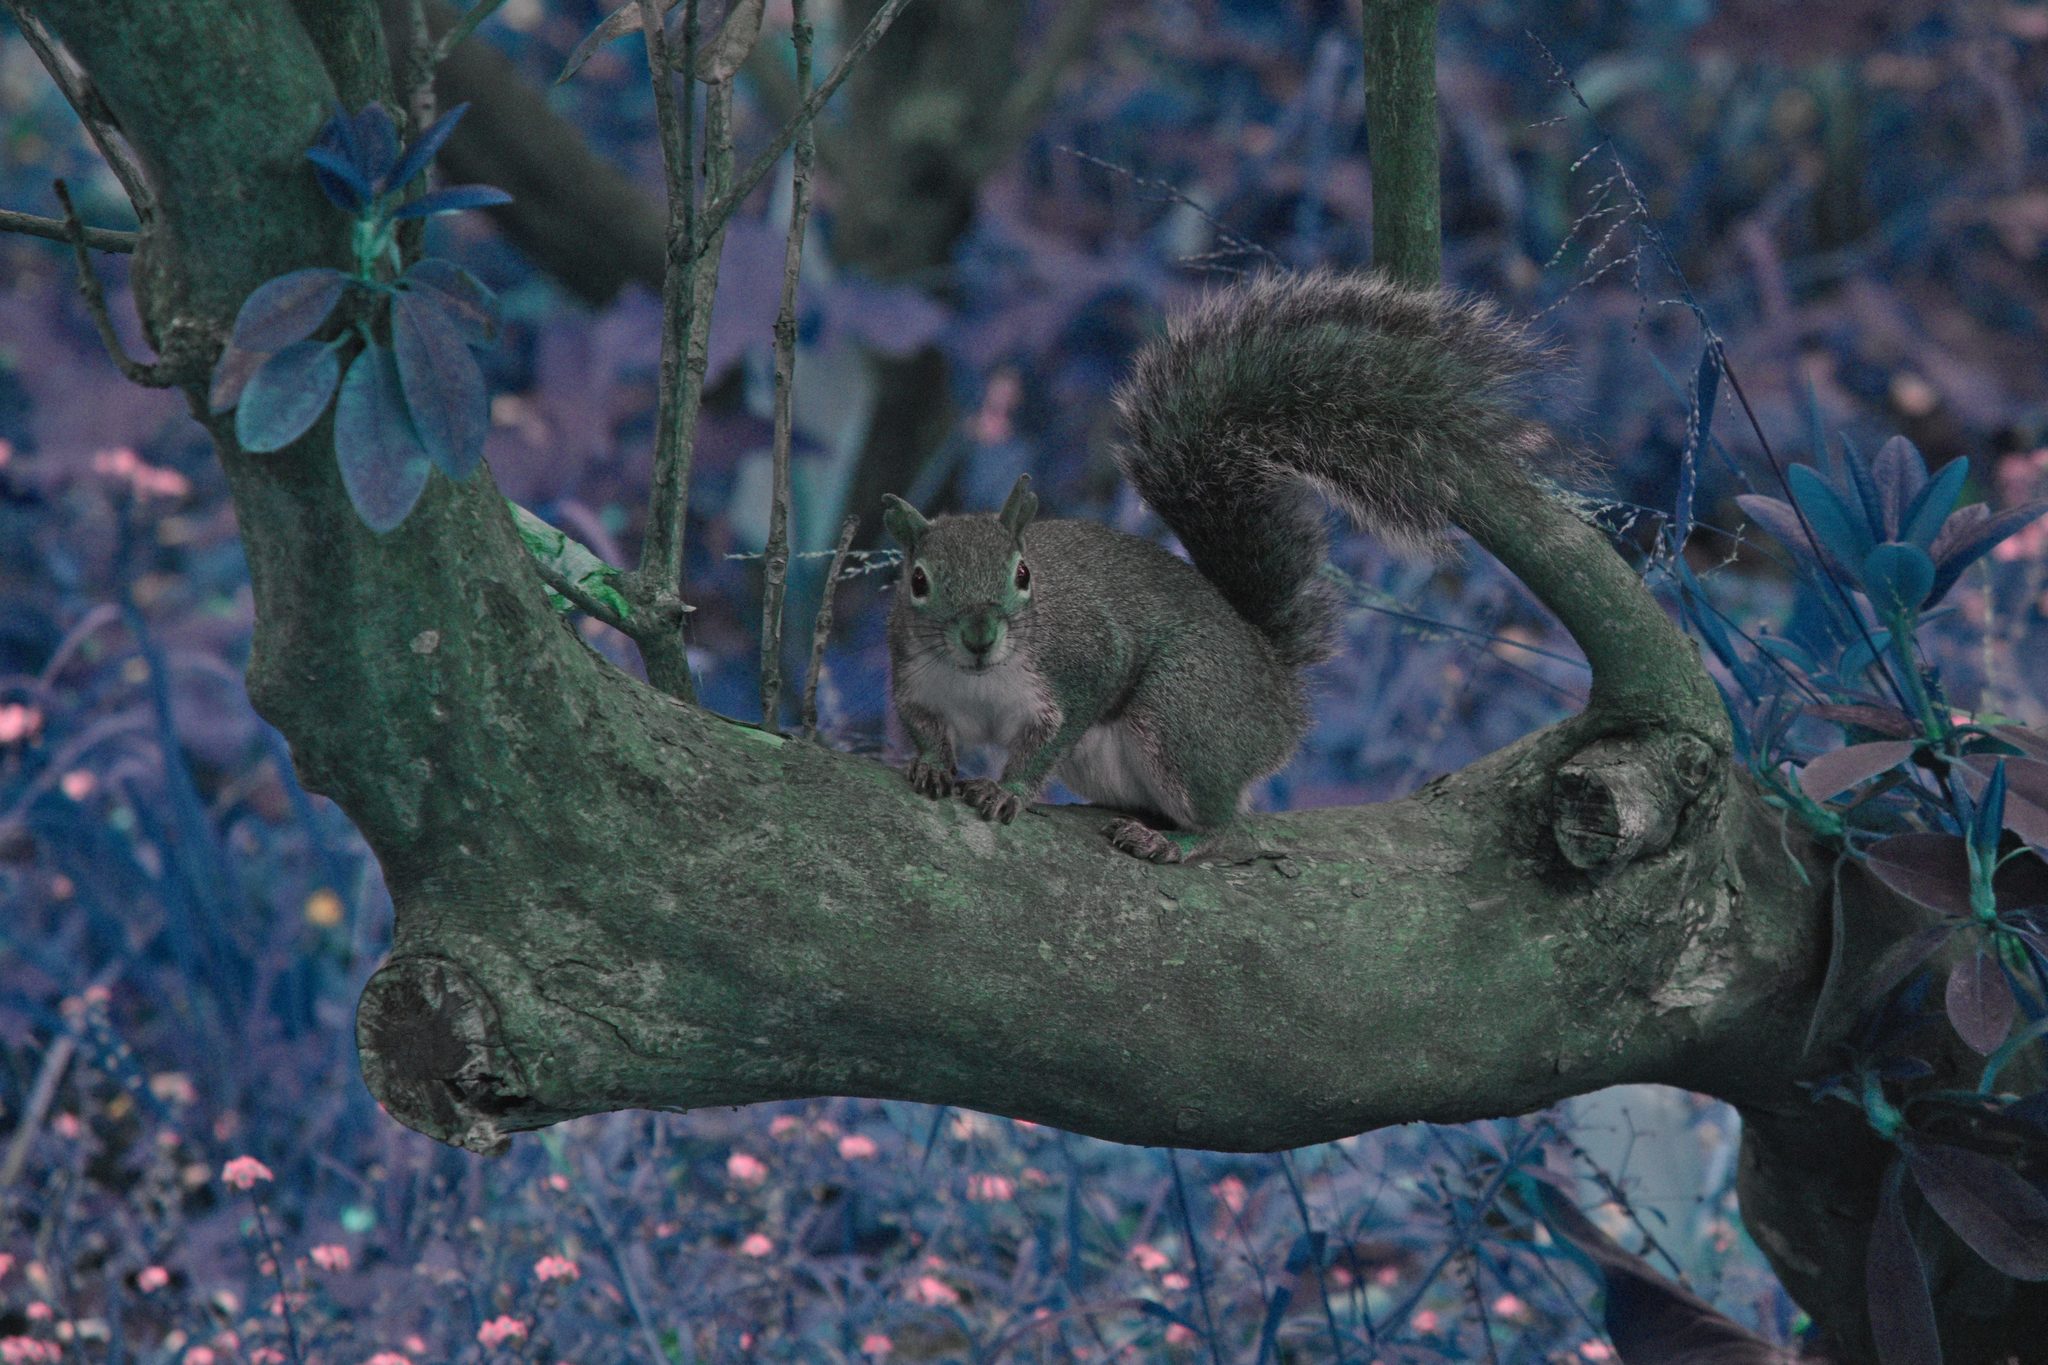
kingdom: Animalia
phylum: Chordata
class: Mammalia
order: Rodentia
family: Sciuridae
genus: Sciurus
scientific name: Sciurus carolinensis
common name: Eastern gray squirrel
